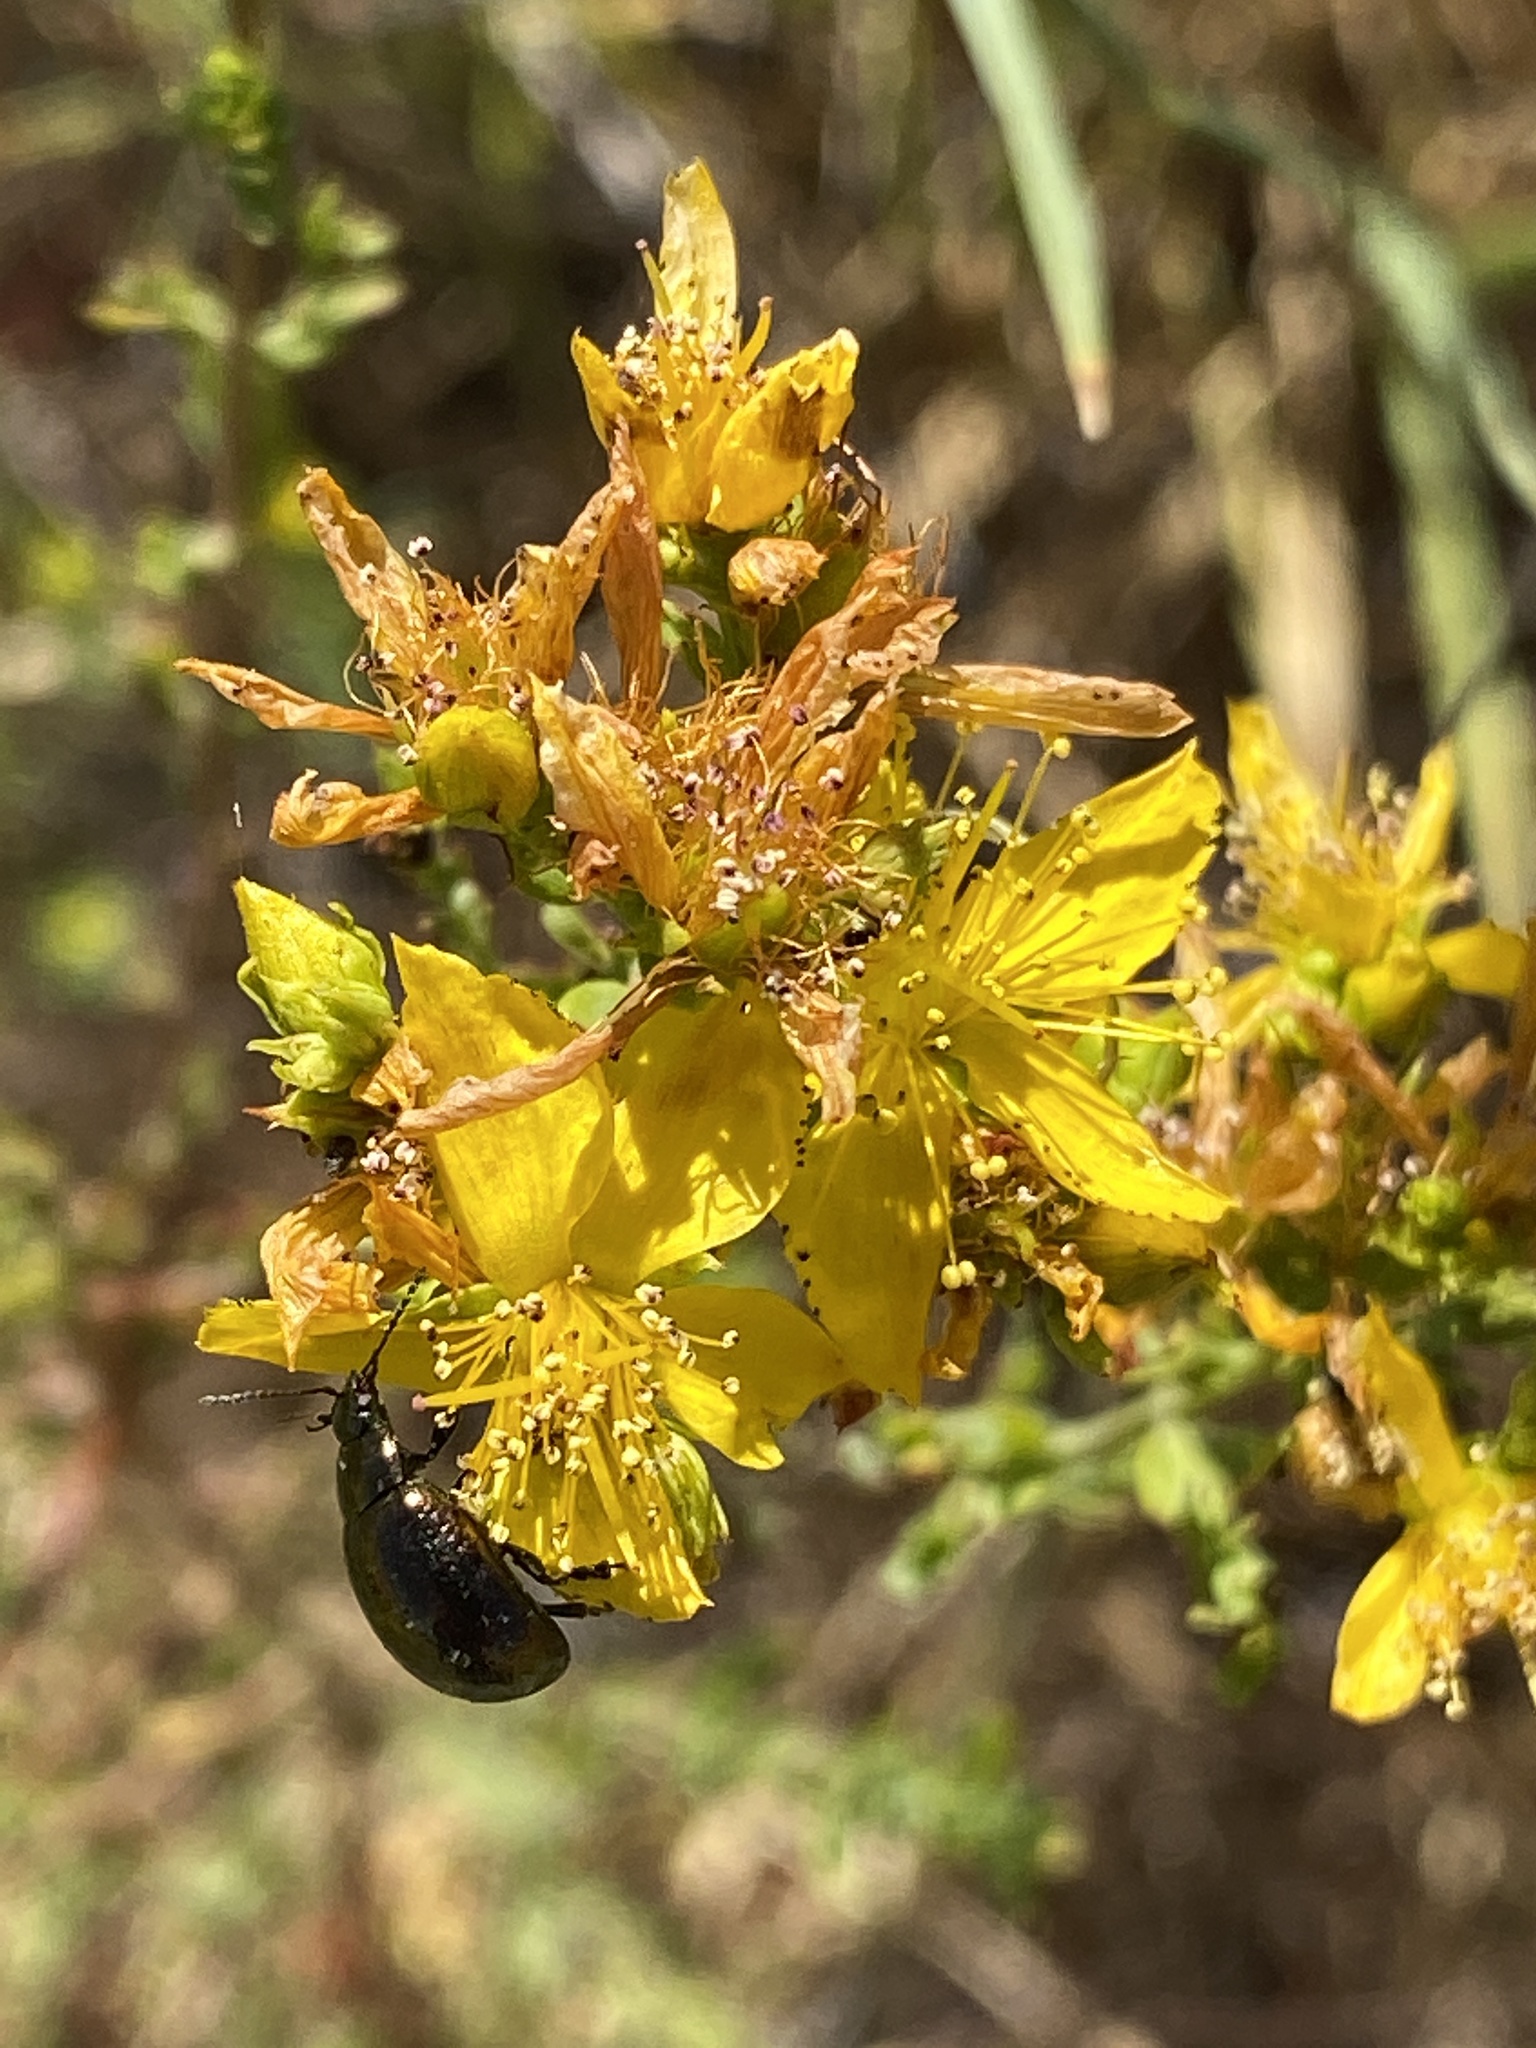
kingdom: Animalia
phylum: Arthropoda
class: Insecta
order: Coleoptera
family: Chrysomelidae
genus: Chrysolina
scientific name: Chrysolina hyperici
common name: St. johnswort beetle
